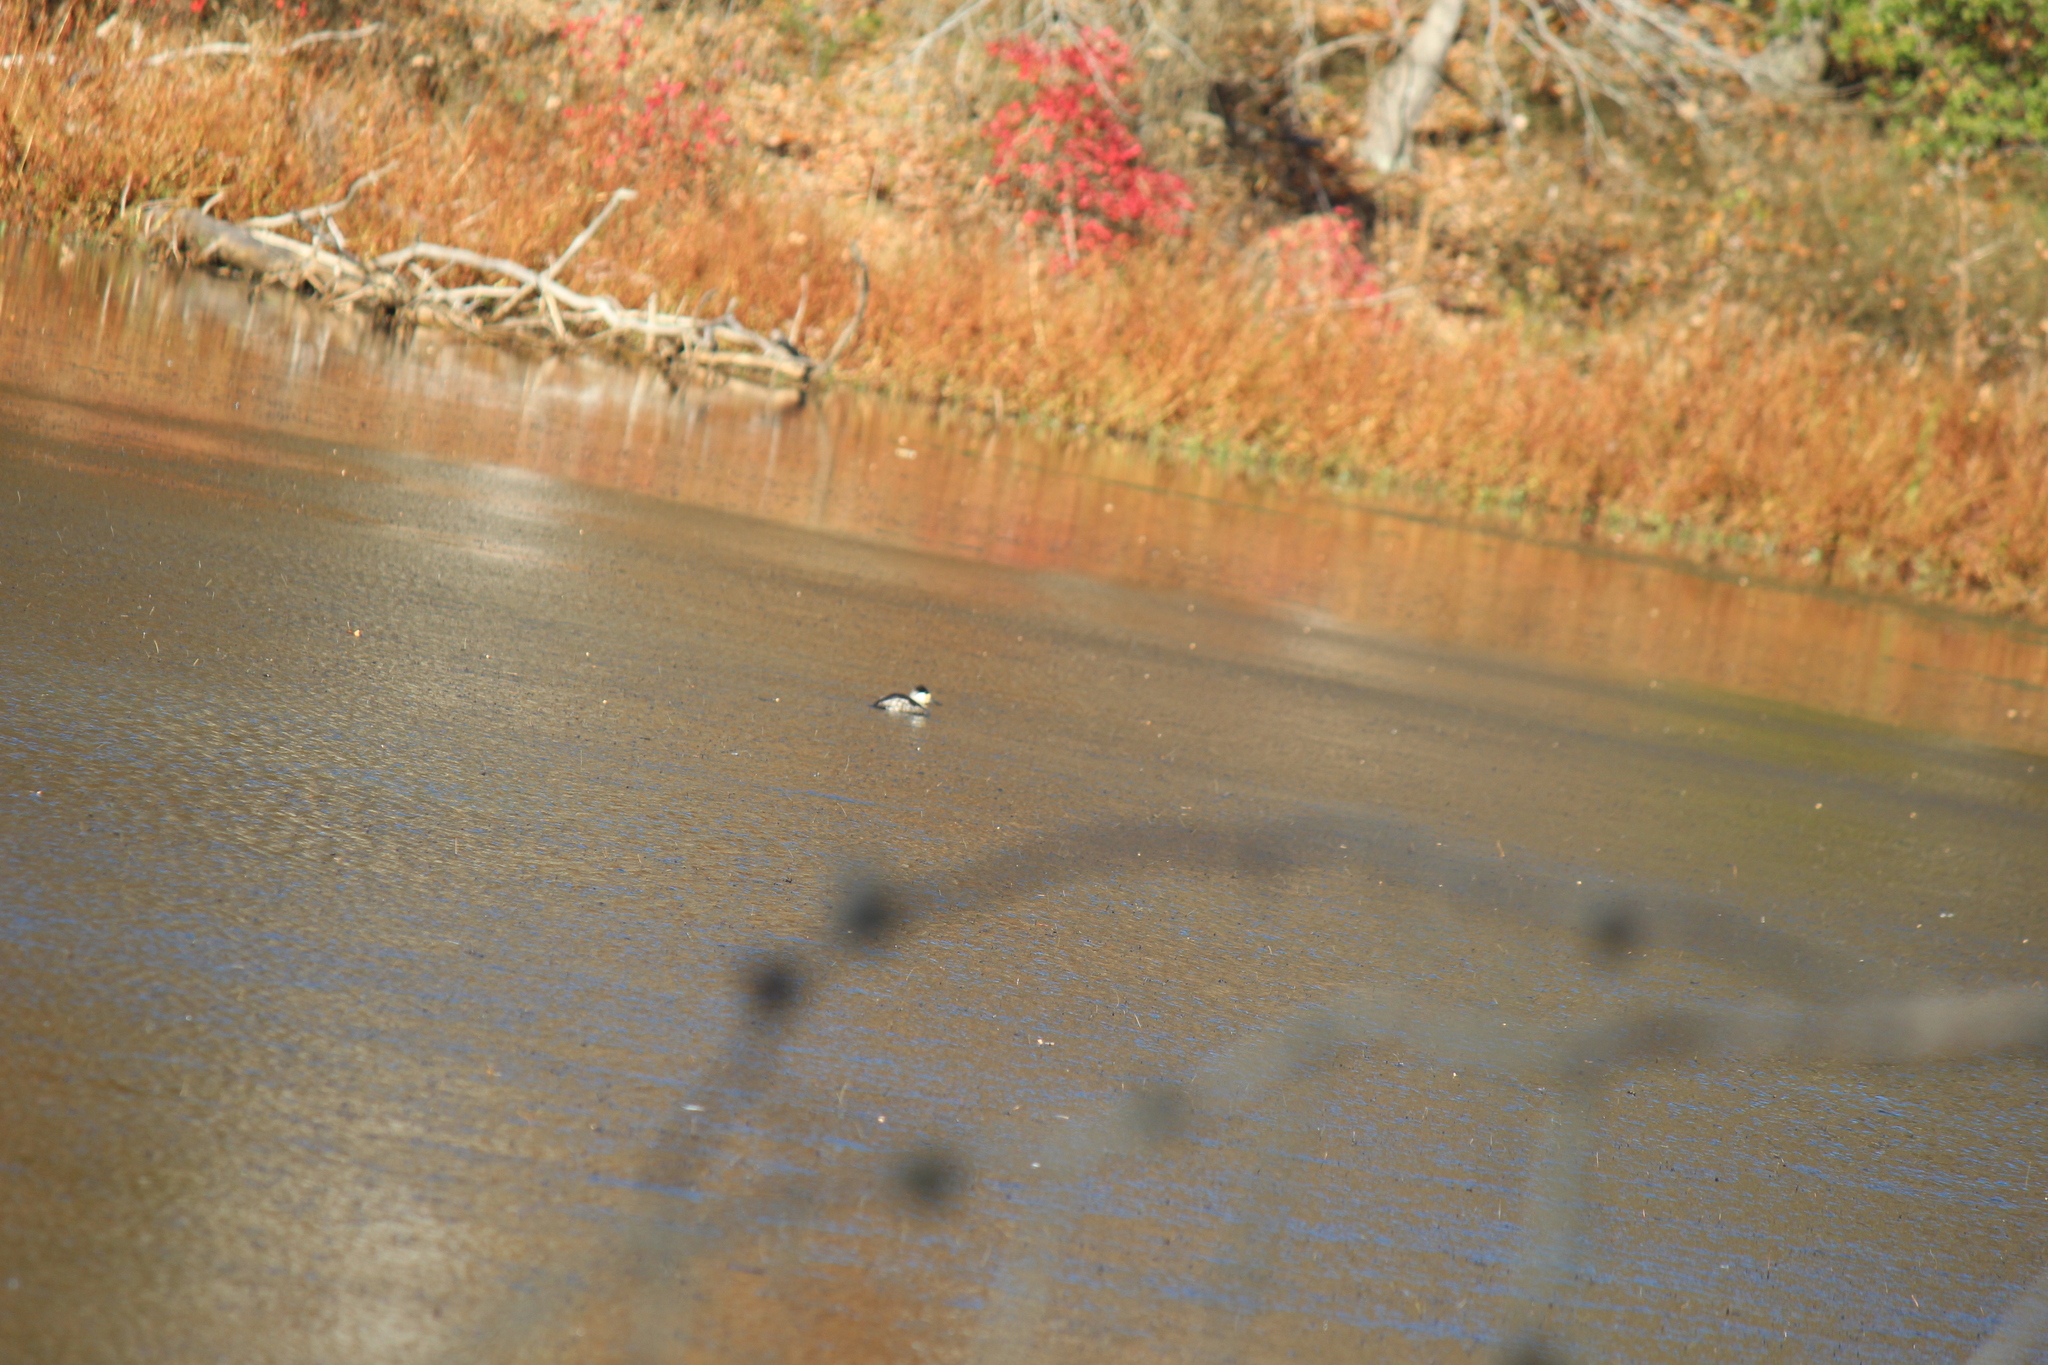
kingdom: Animalia
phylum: Chordata
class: Aves
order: Anseriformes
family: Anatidae
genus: Oxyura
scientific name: Oxyura jamaicensis
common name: Ruddy duck
